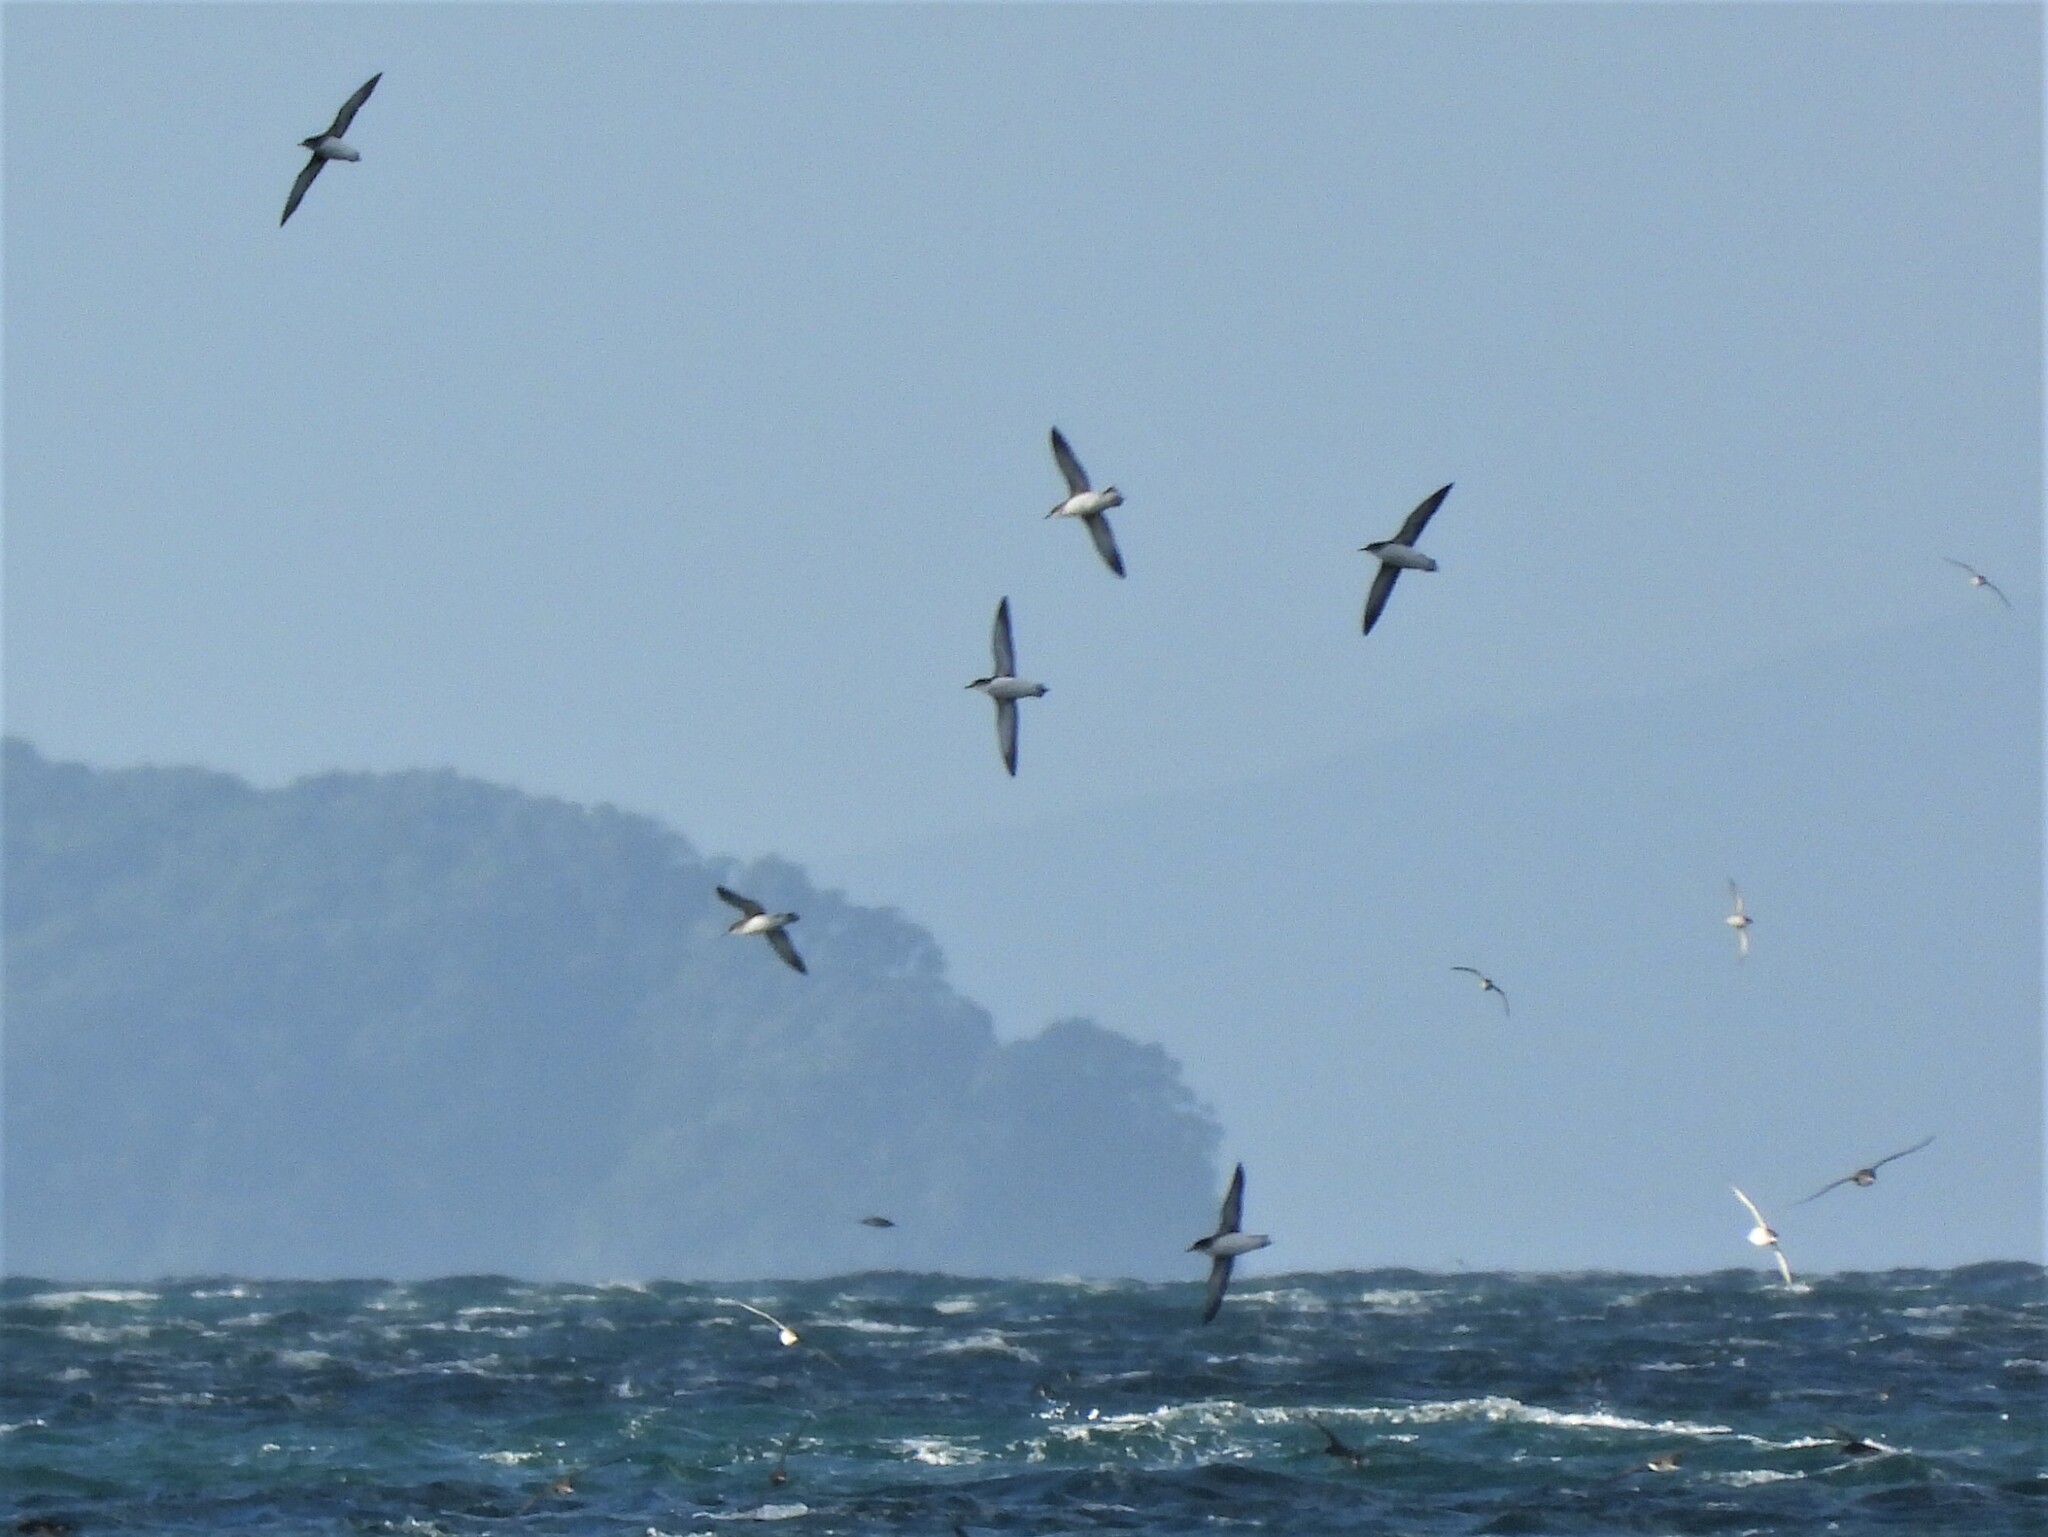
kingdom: Animalia
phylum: Chordata
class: Aves
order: Procellariiformes
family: Procellariidae
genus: Puffinus
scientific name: Puffinus gavia
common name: Fluttering shearwater
